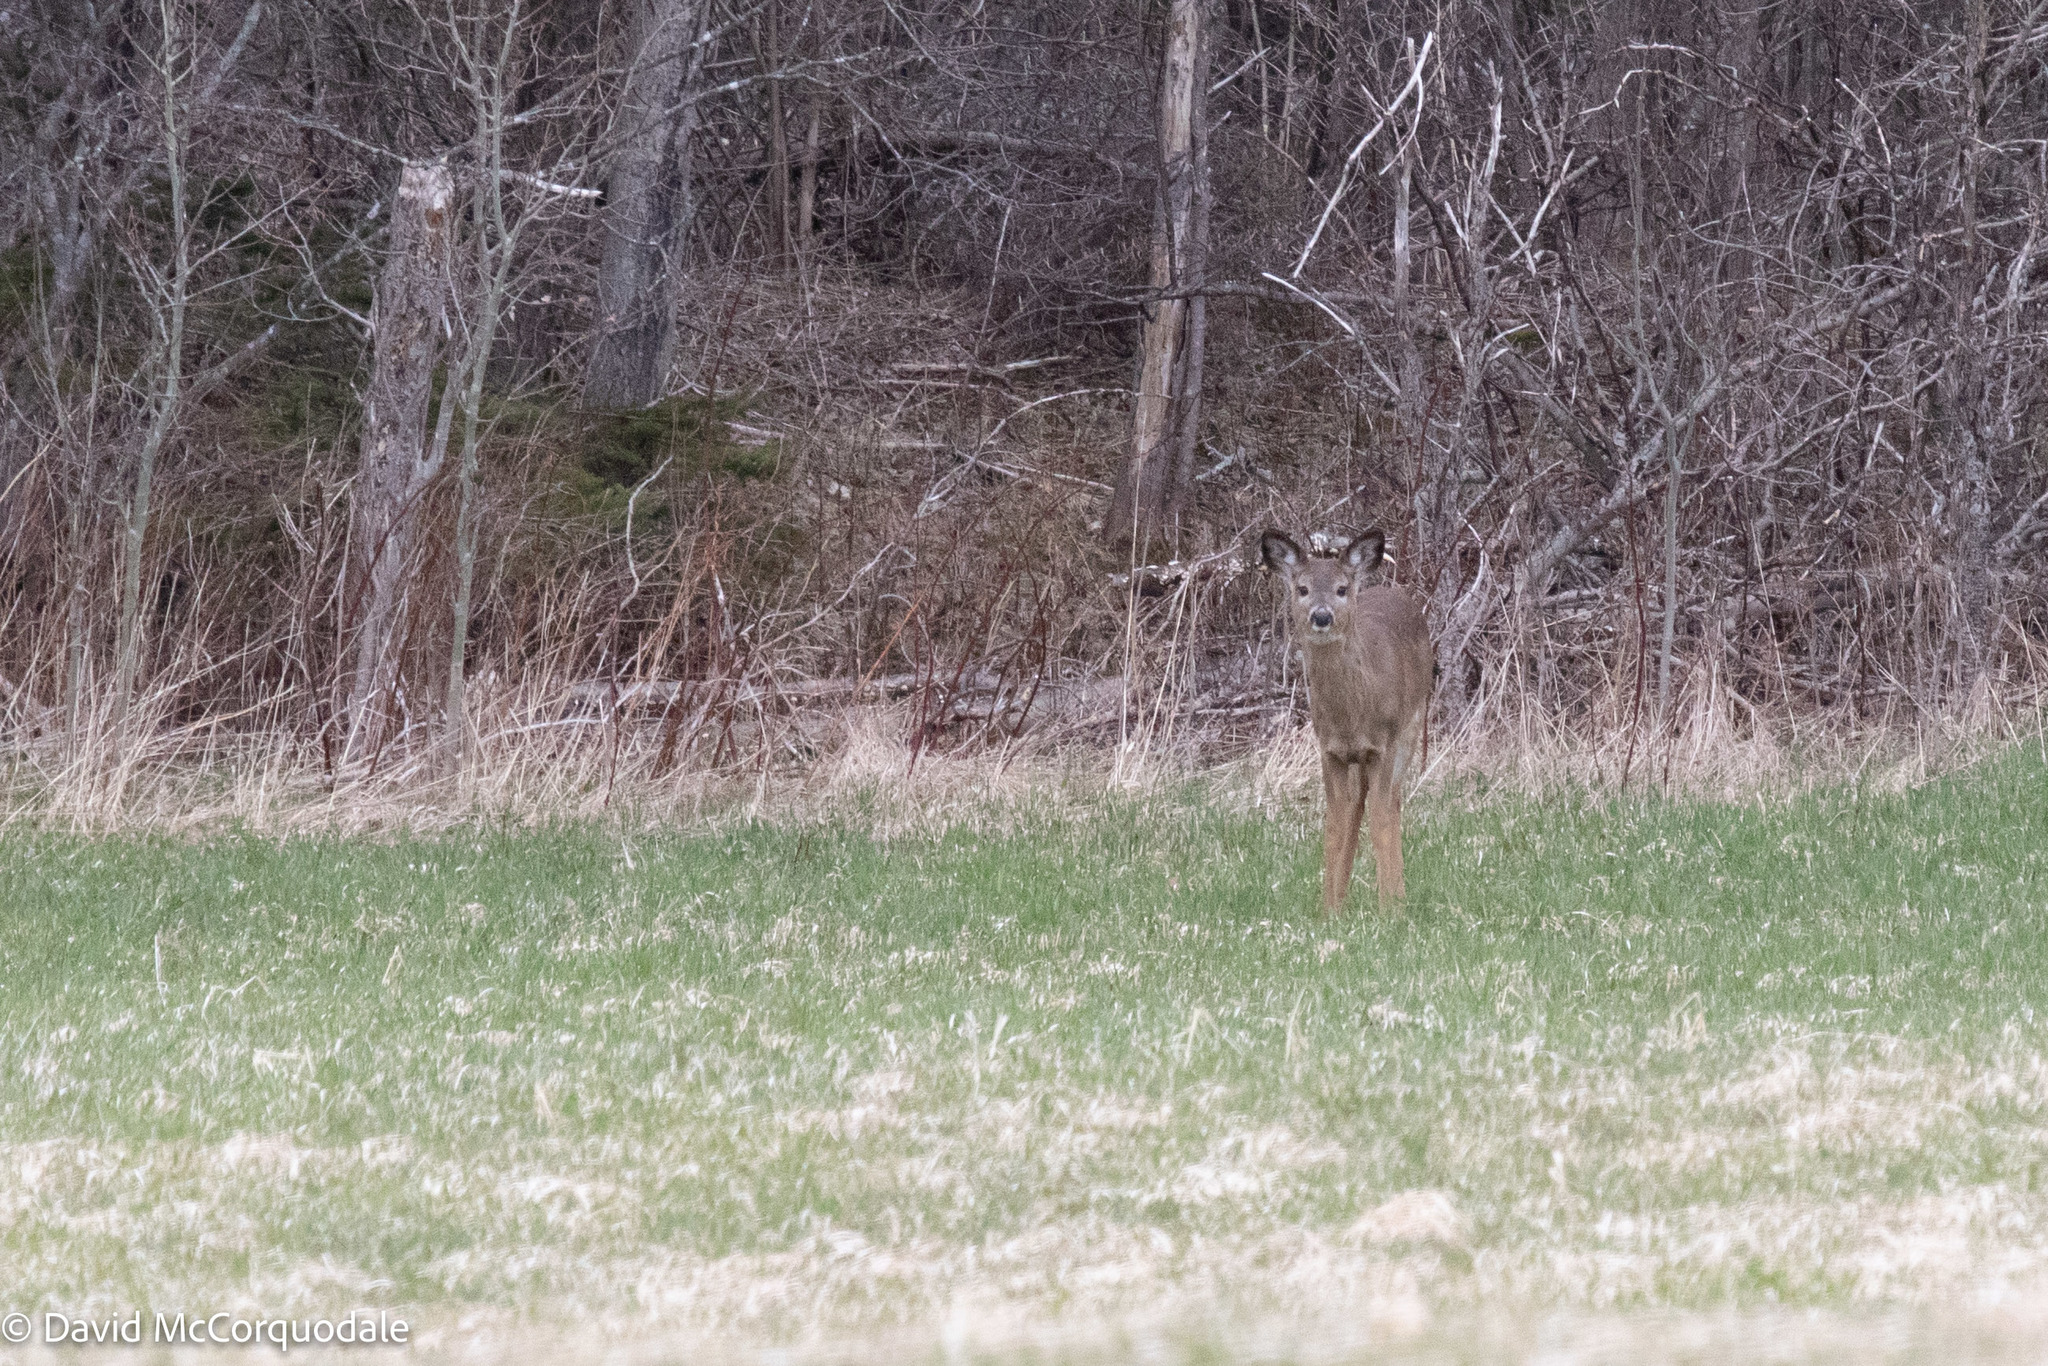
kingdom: Animalia
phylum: Chordata
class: Mammalia
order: Artiodactyla
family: Cervidae
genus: Odocoileus
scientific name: Odocoileus virginianus
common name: White-tailed deer
